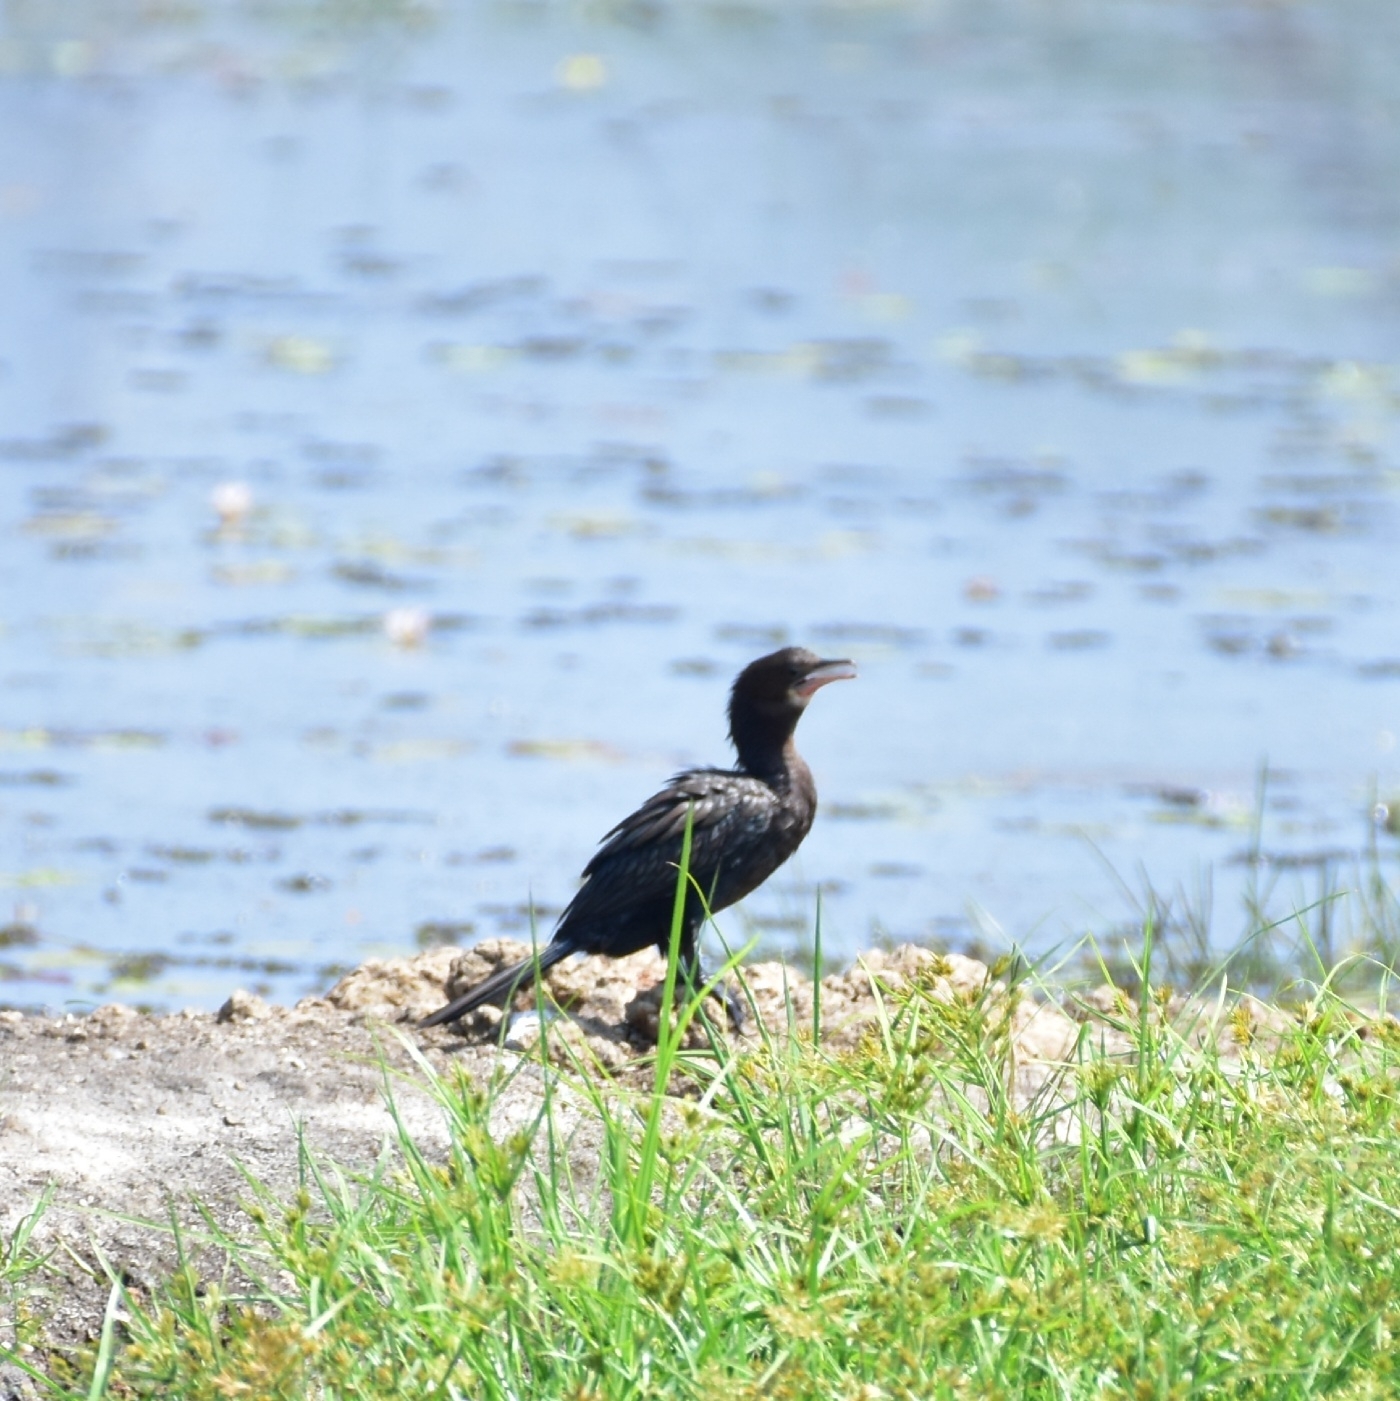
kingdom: Animalia
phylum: Chordata
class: Aves
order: Suliformes
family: Phalacrocoracidae
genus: Microcarbo
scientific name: Microcarbo niger
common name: Little cormorant
